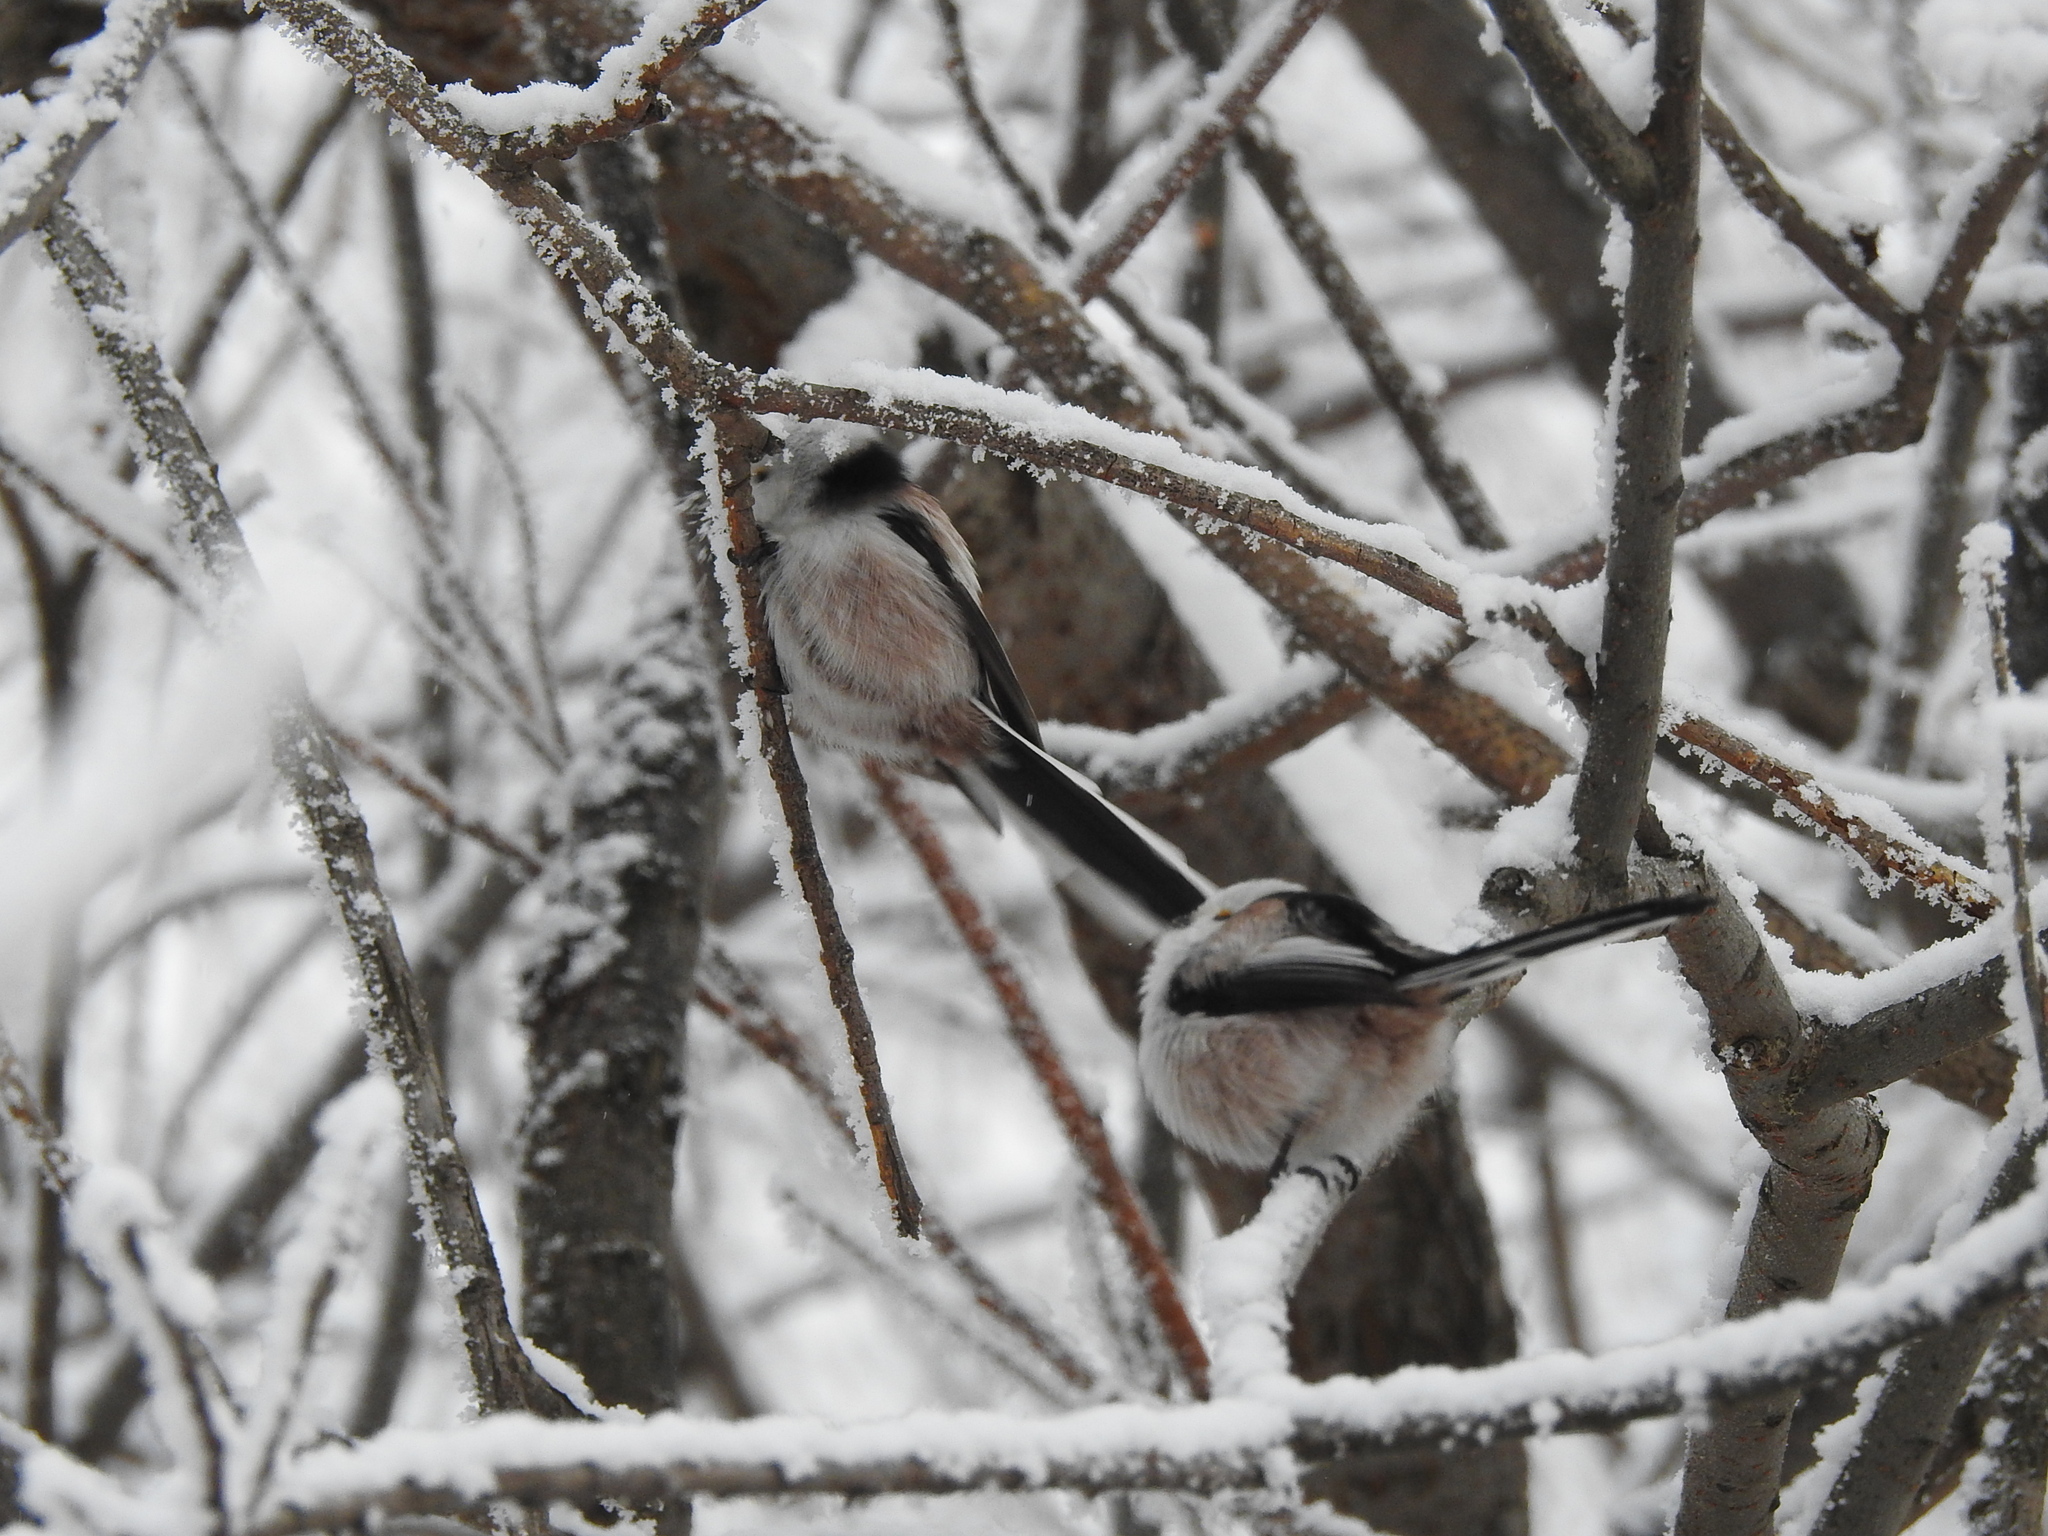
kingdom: Animalia
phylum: Chordata
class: Aves
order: Passeriformes
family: Aegithalidae
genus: Aegithalos
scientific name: Aegithalos caudatus
